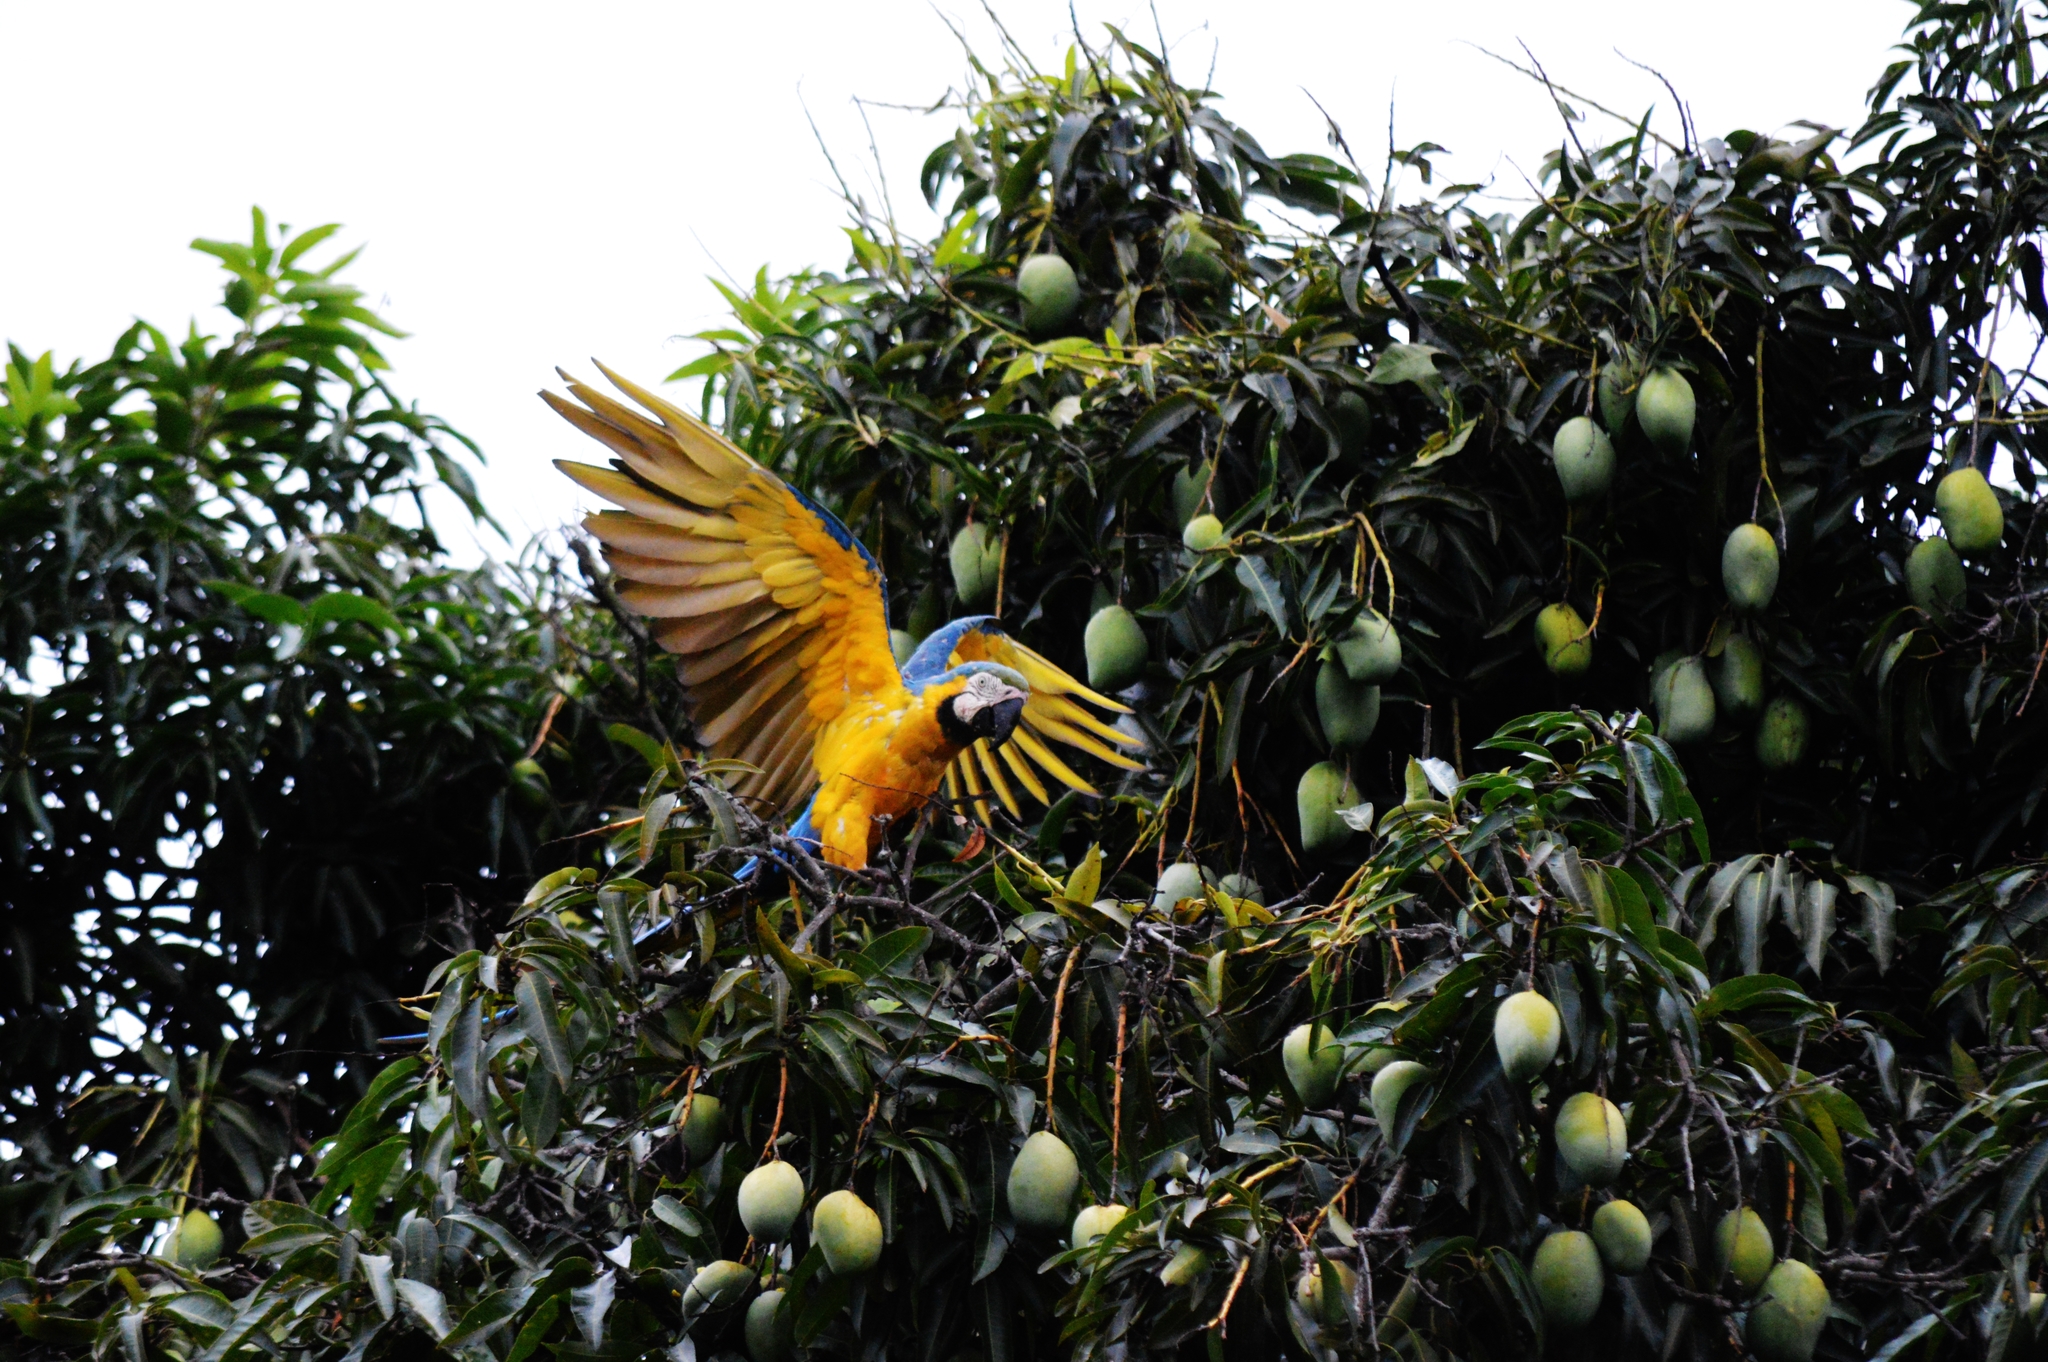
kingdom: Animalia
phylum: Chordata
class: Aves
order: Psittaciformes
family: Psittacidae
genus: Ara
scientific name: Ara ararauna
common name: Blue-and-yellow macaw
